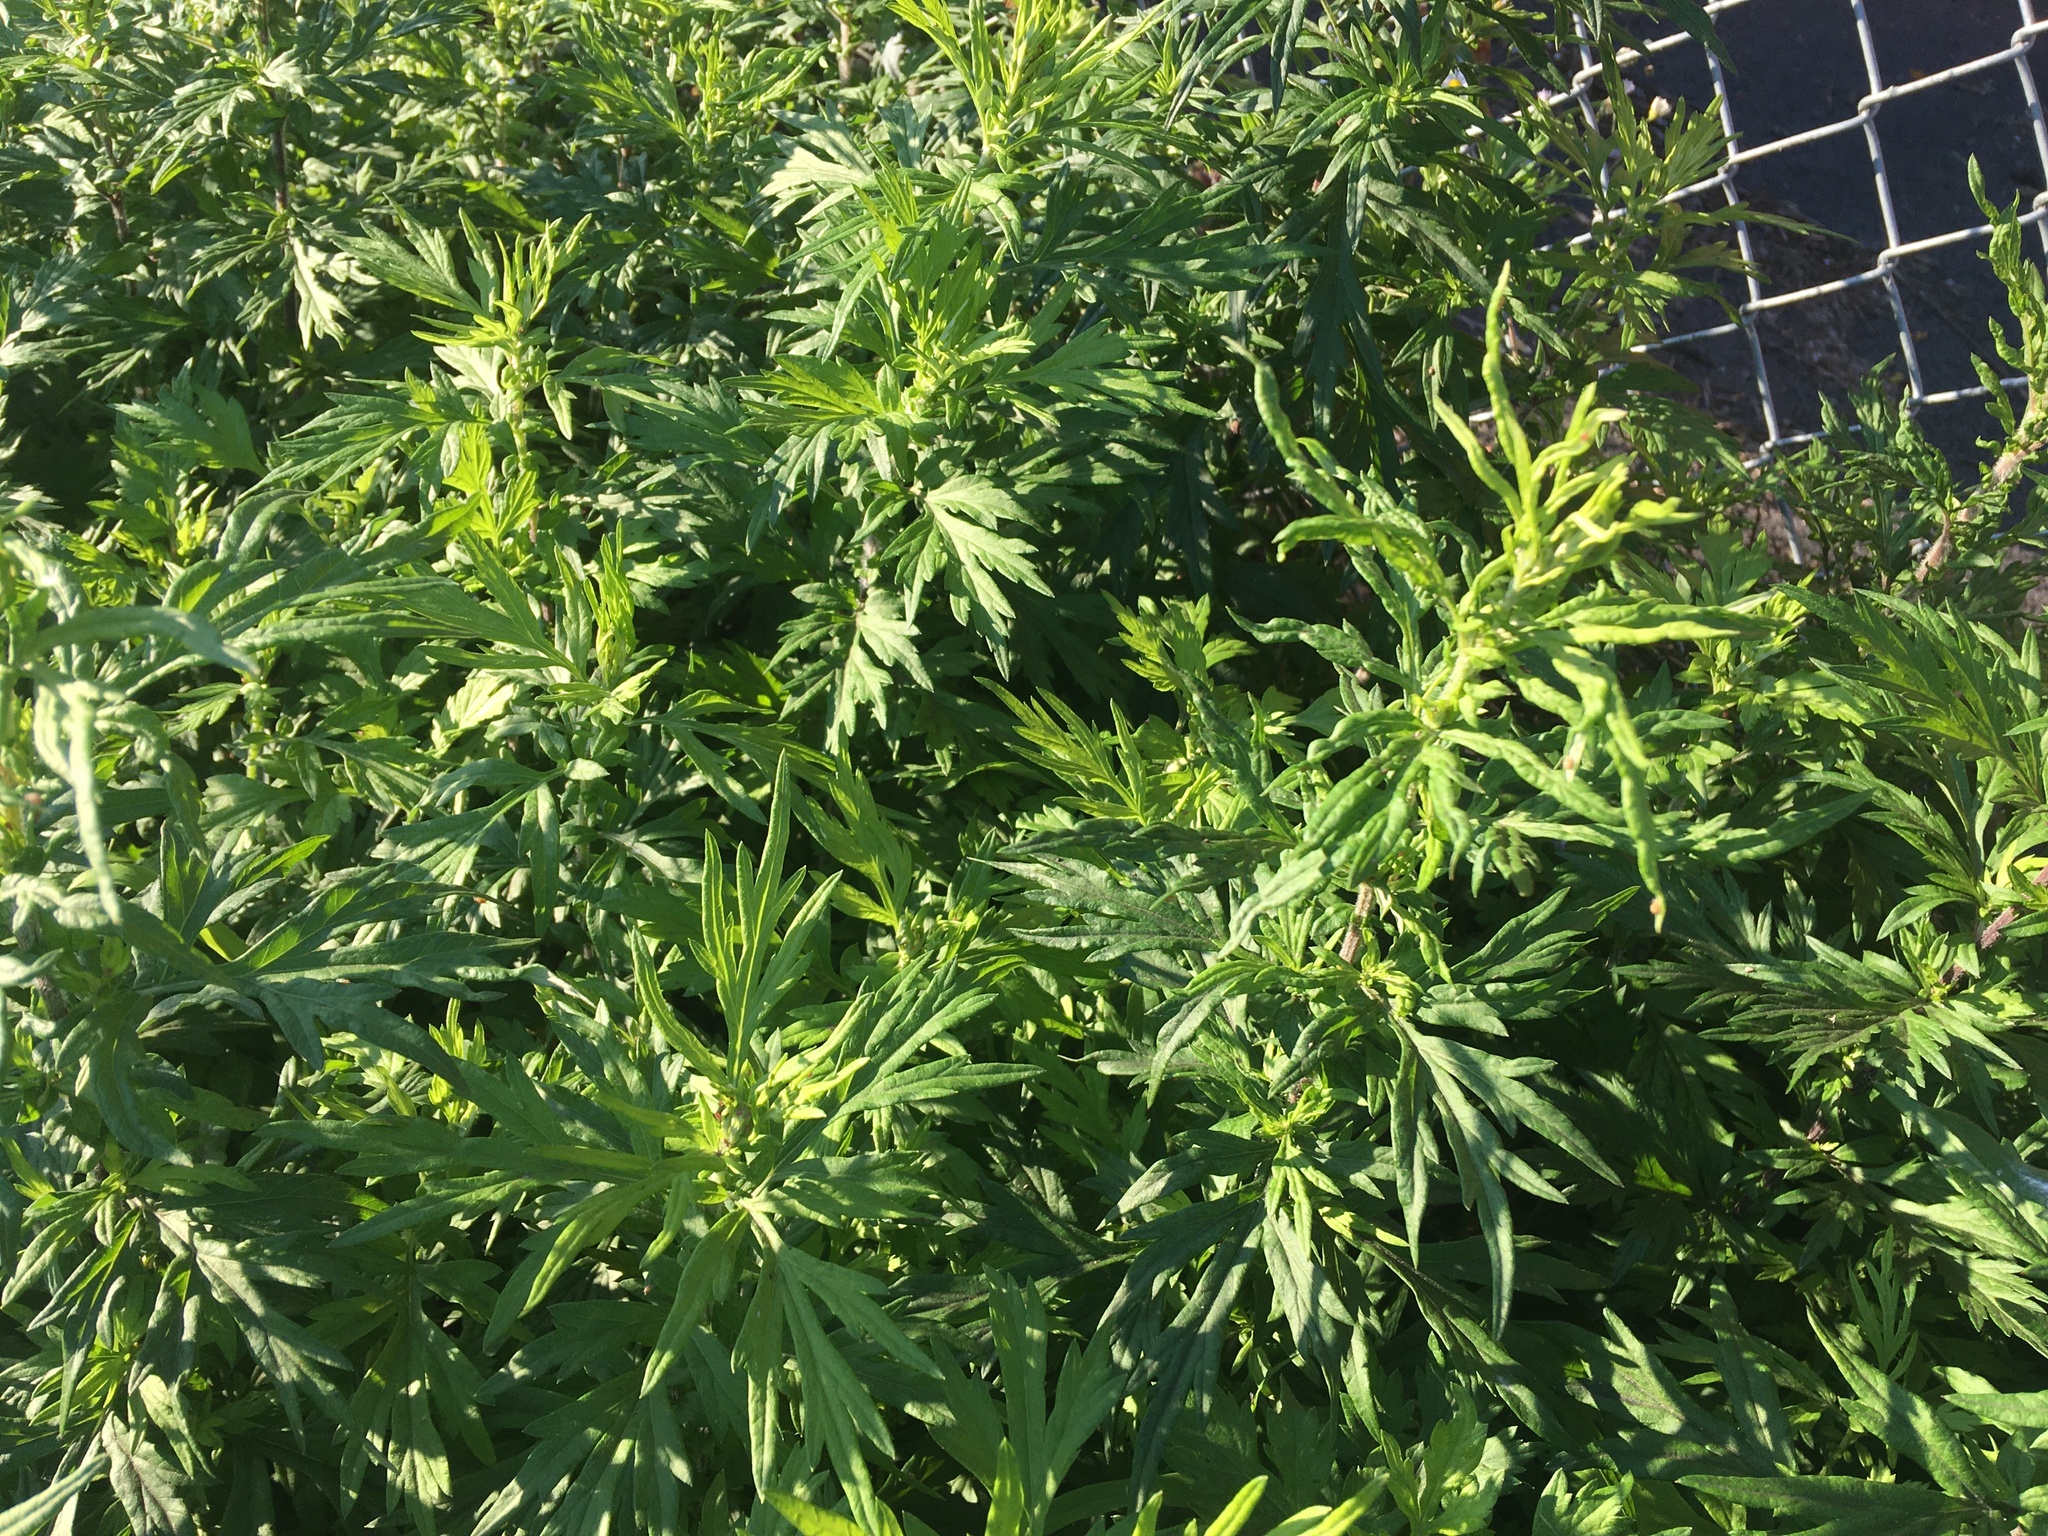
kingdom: Plantae
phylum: Tracheophyta
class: Magnoliopsida
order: Asterales
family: Asteraceae
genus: Artemisia
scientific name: Artemisia vulgaris
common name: Mugwort
